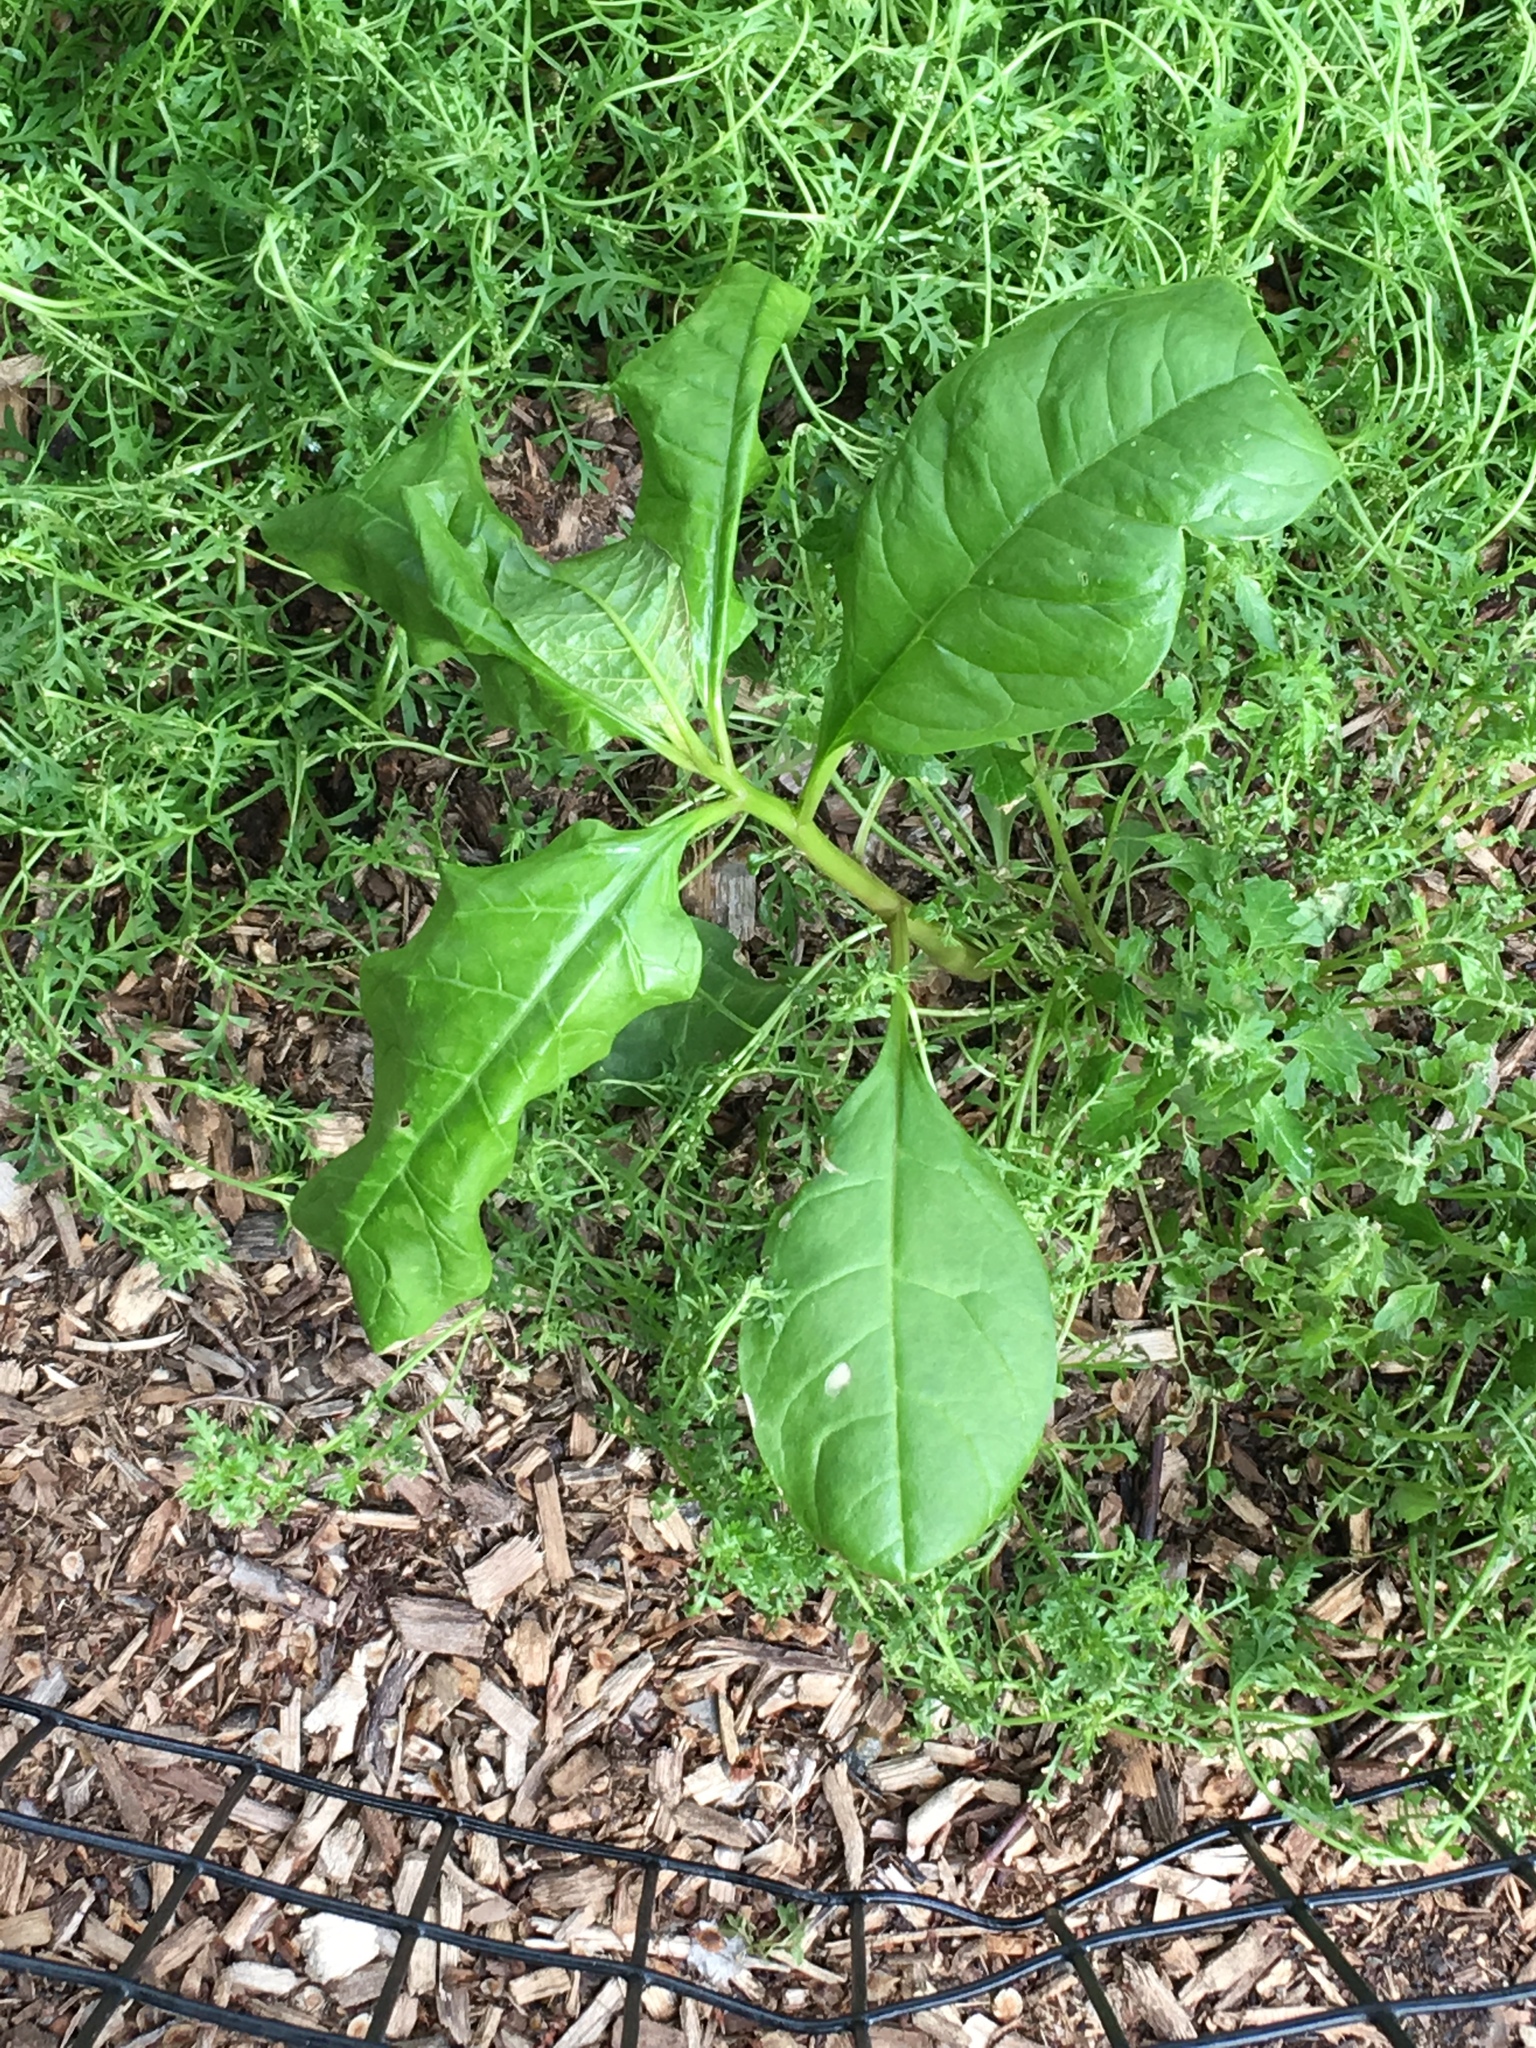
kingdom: Plantae
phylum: Tracheophyta
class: Magnoliopsida
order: Caryophyllales
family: Phytolaccaceae
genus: Phytolacca
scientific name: Phytolacca americana
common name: American pokeweed
